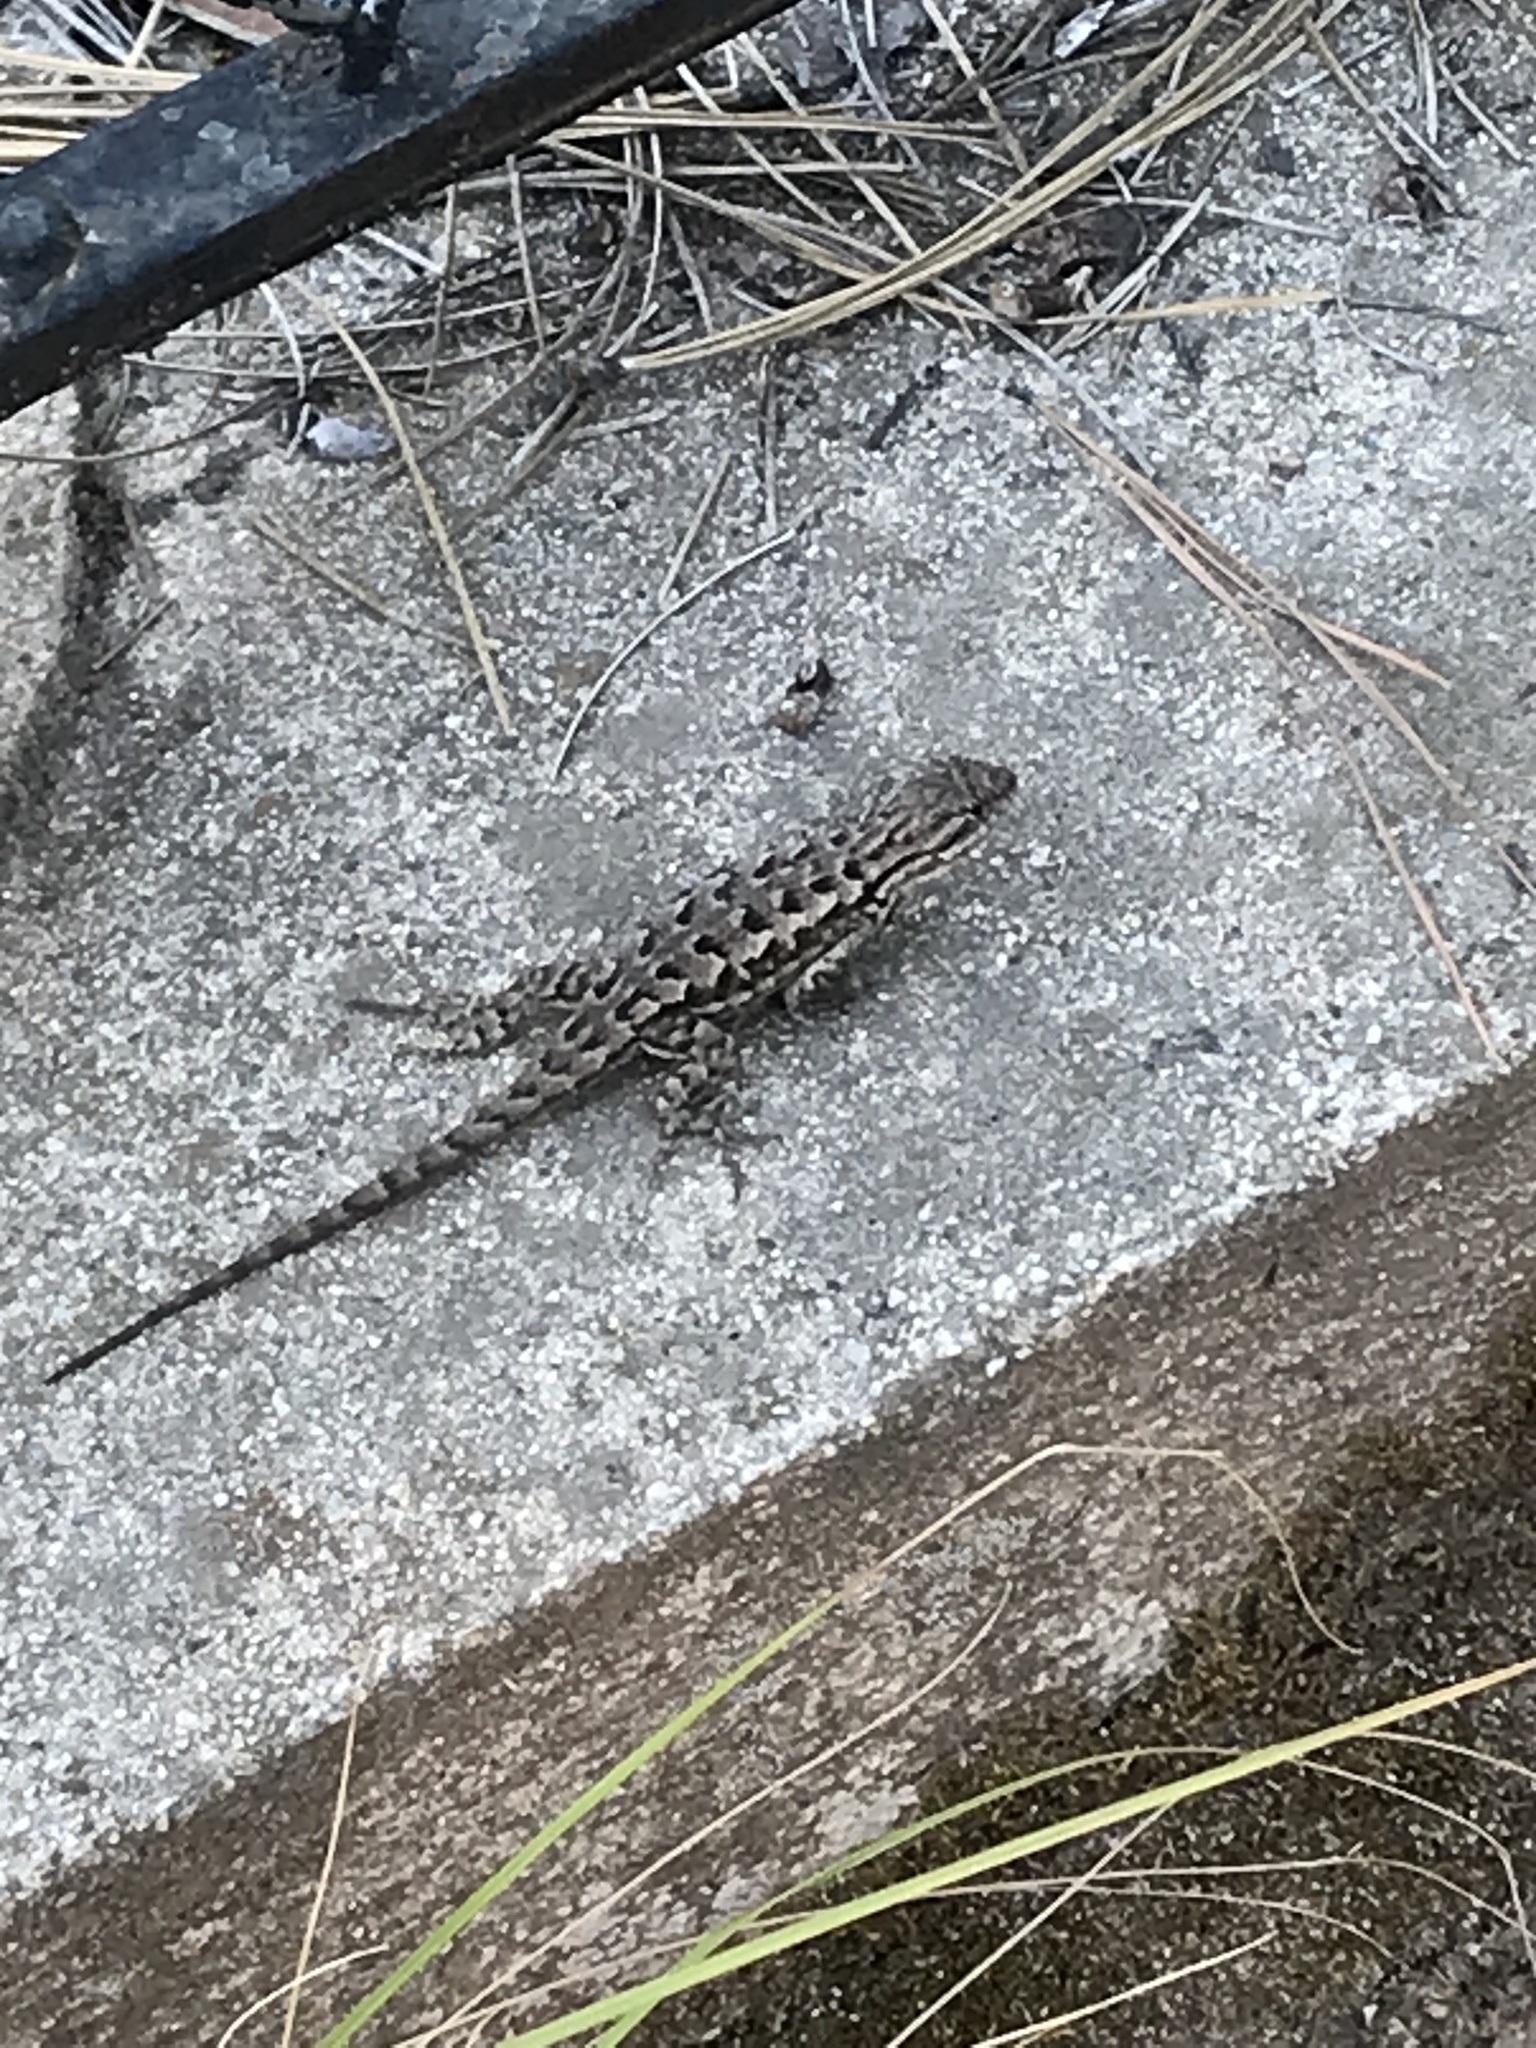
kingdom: Animalia
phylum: Chordata
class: Squamata
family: Phrynosomatidae
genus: Sceloporus
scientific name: Sceloporus occidentalis
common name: Western fence lizard
